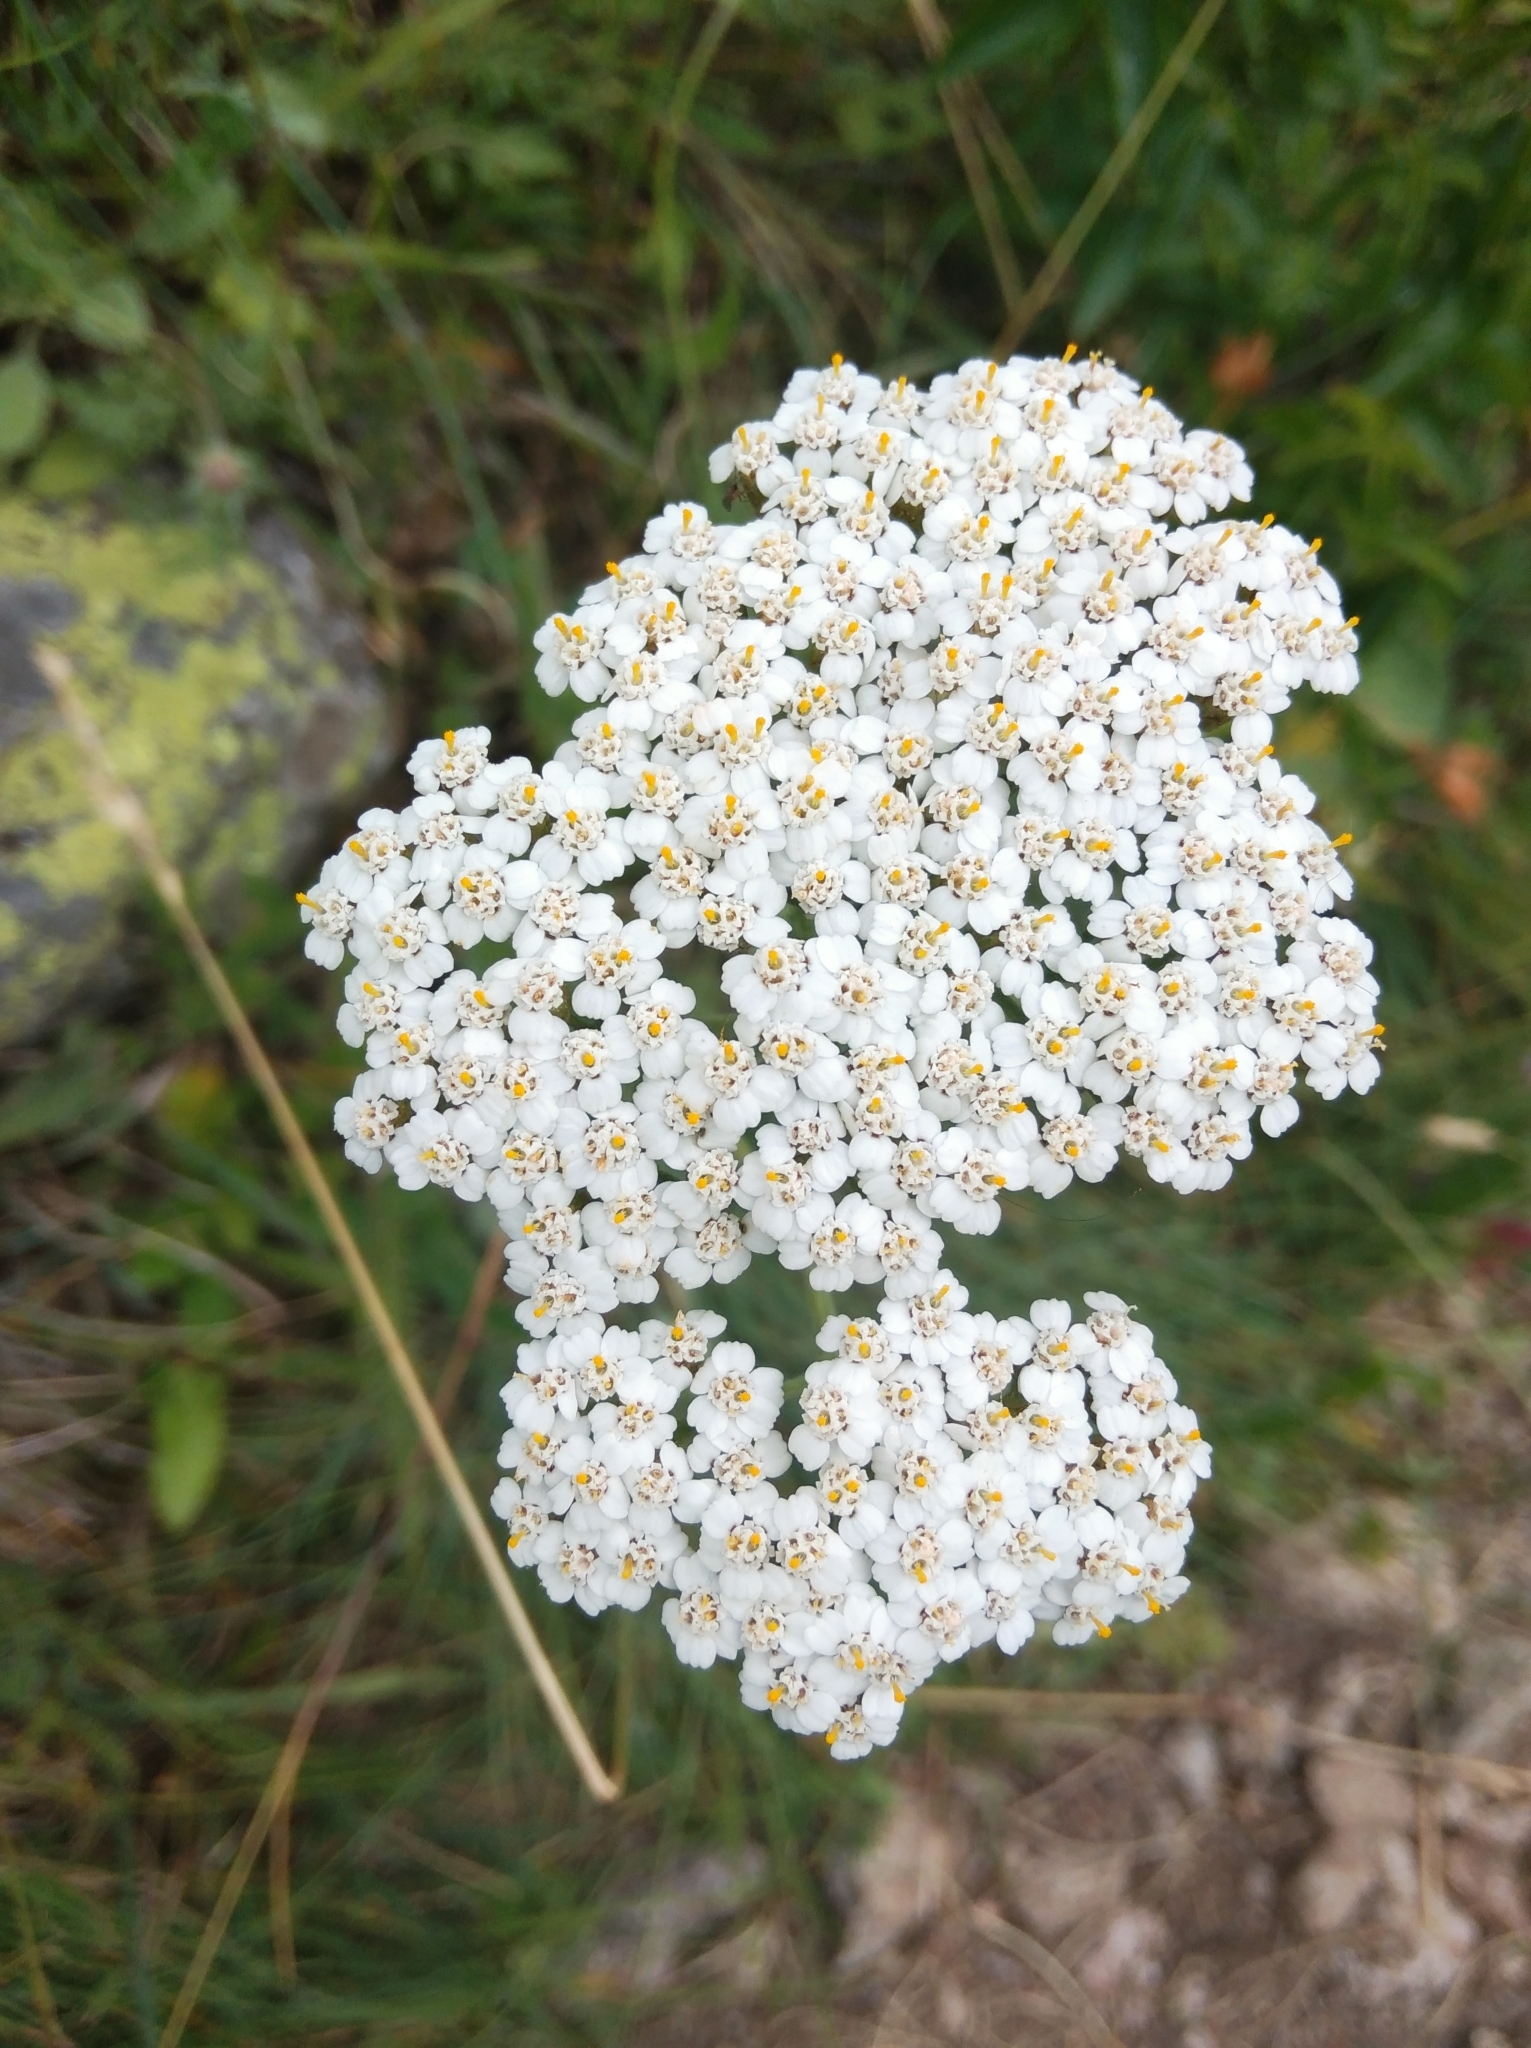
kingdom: Plantae
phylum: Tracheophyta
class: Magnoliopsida
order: Asterales
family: Asteraceae
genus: Achillea
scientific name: Achillea millefolium
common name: Yarrow
